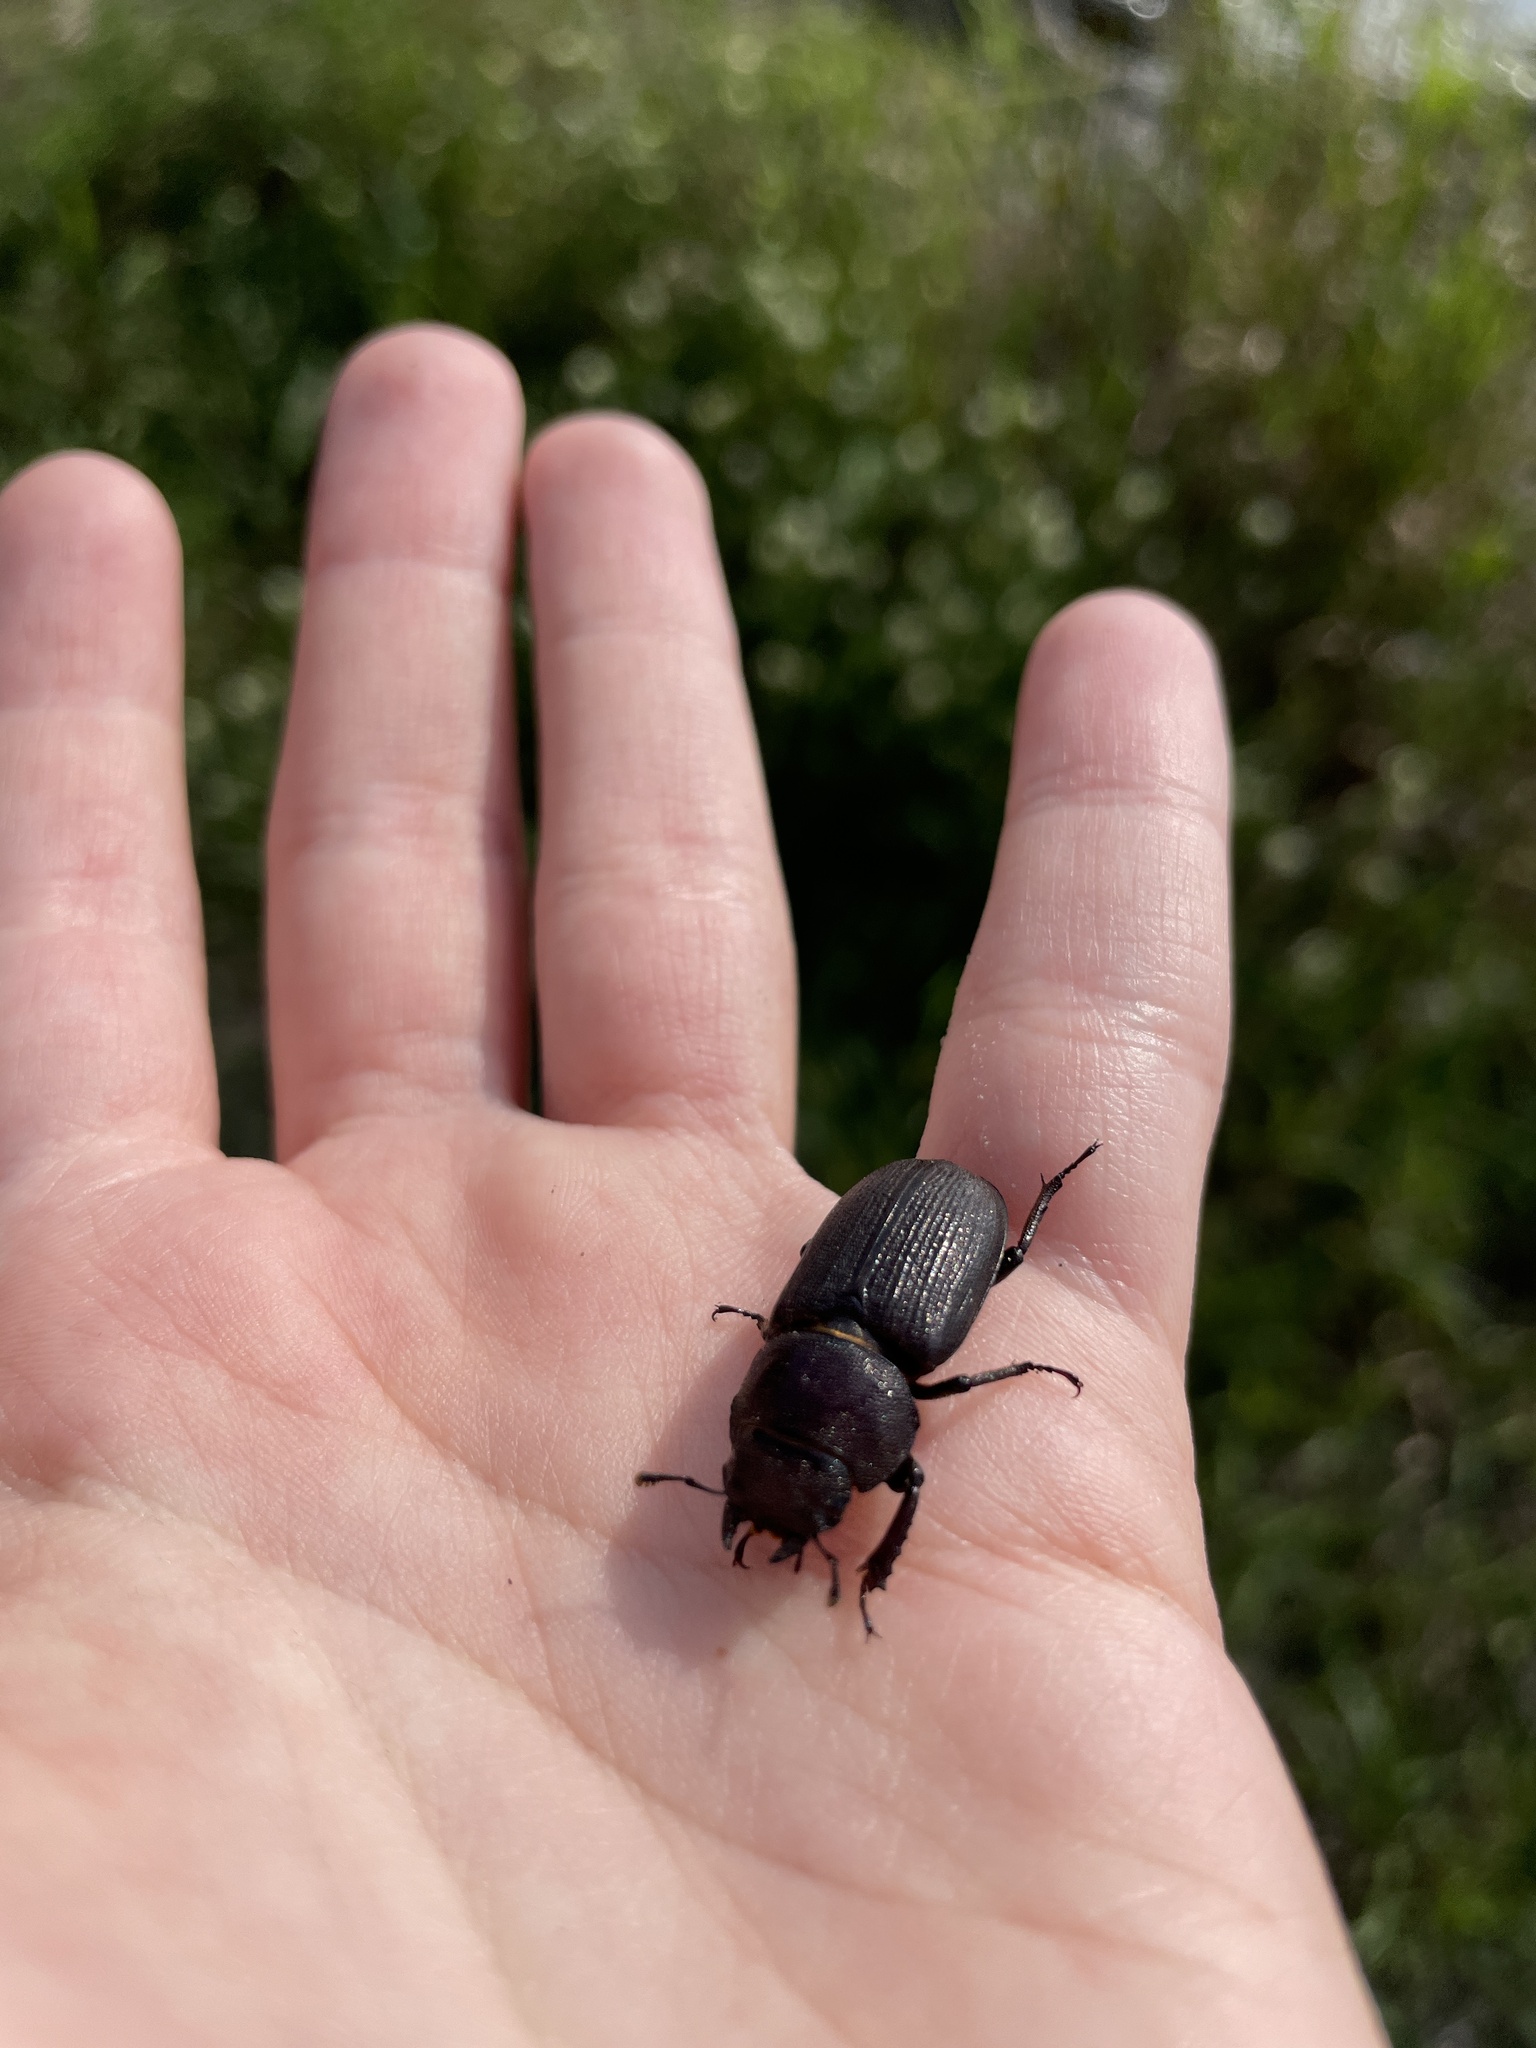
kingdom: Animalia
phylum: Arthropoda
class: Insecta
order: Coleoptera
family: Lucanidae
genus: Dorcus
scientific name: Dorcus parallelus
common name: Antelope beetle
